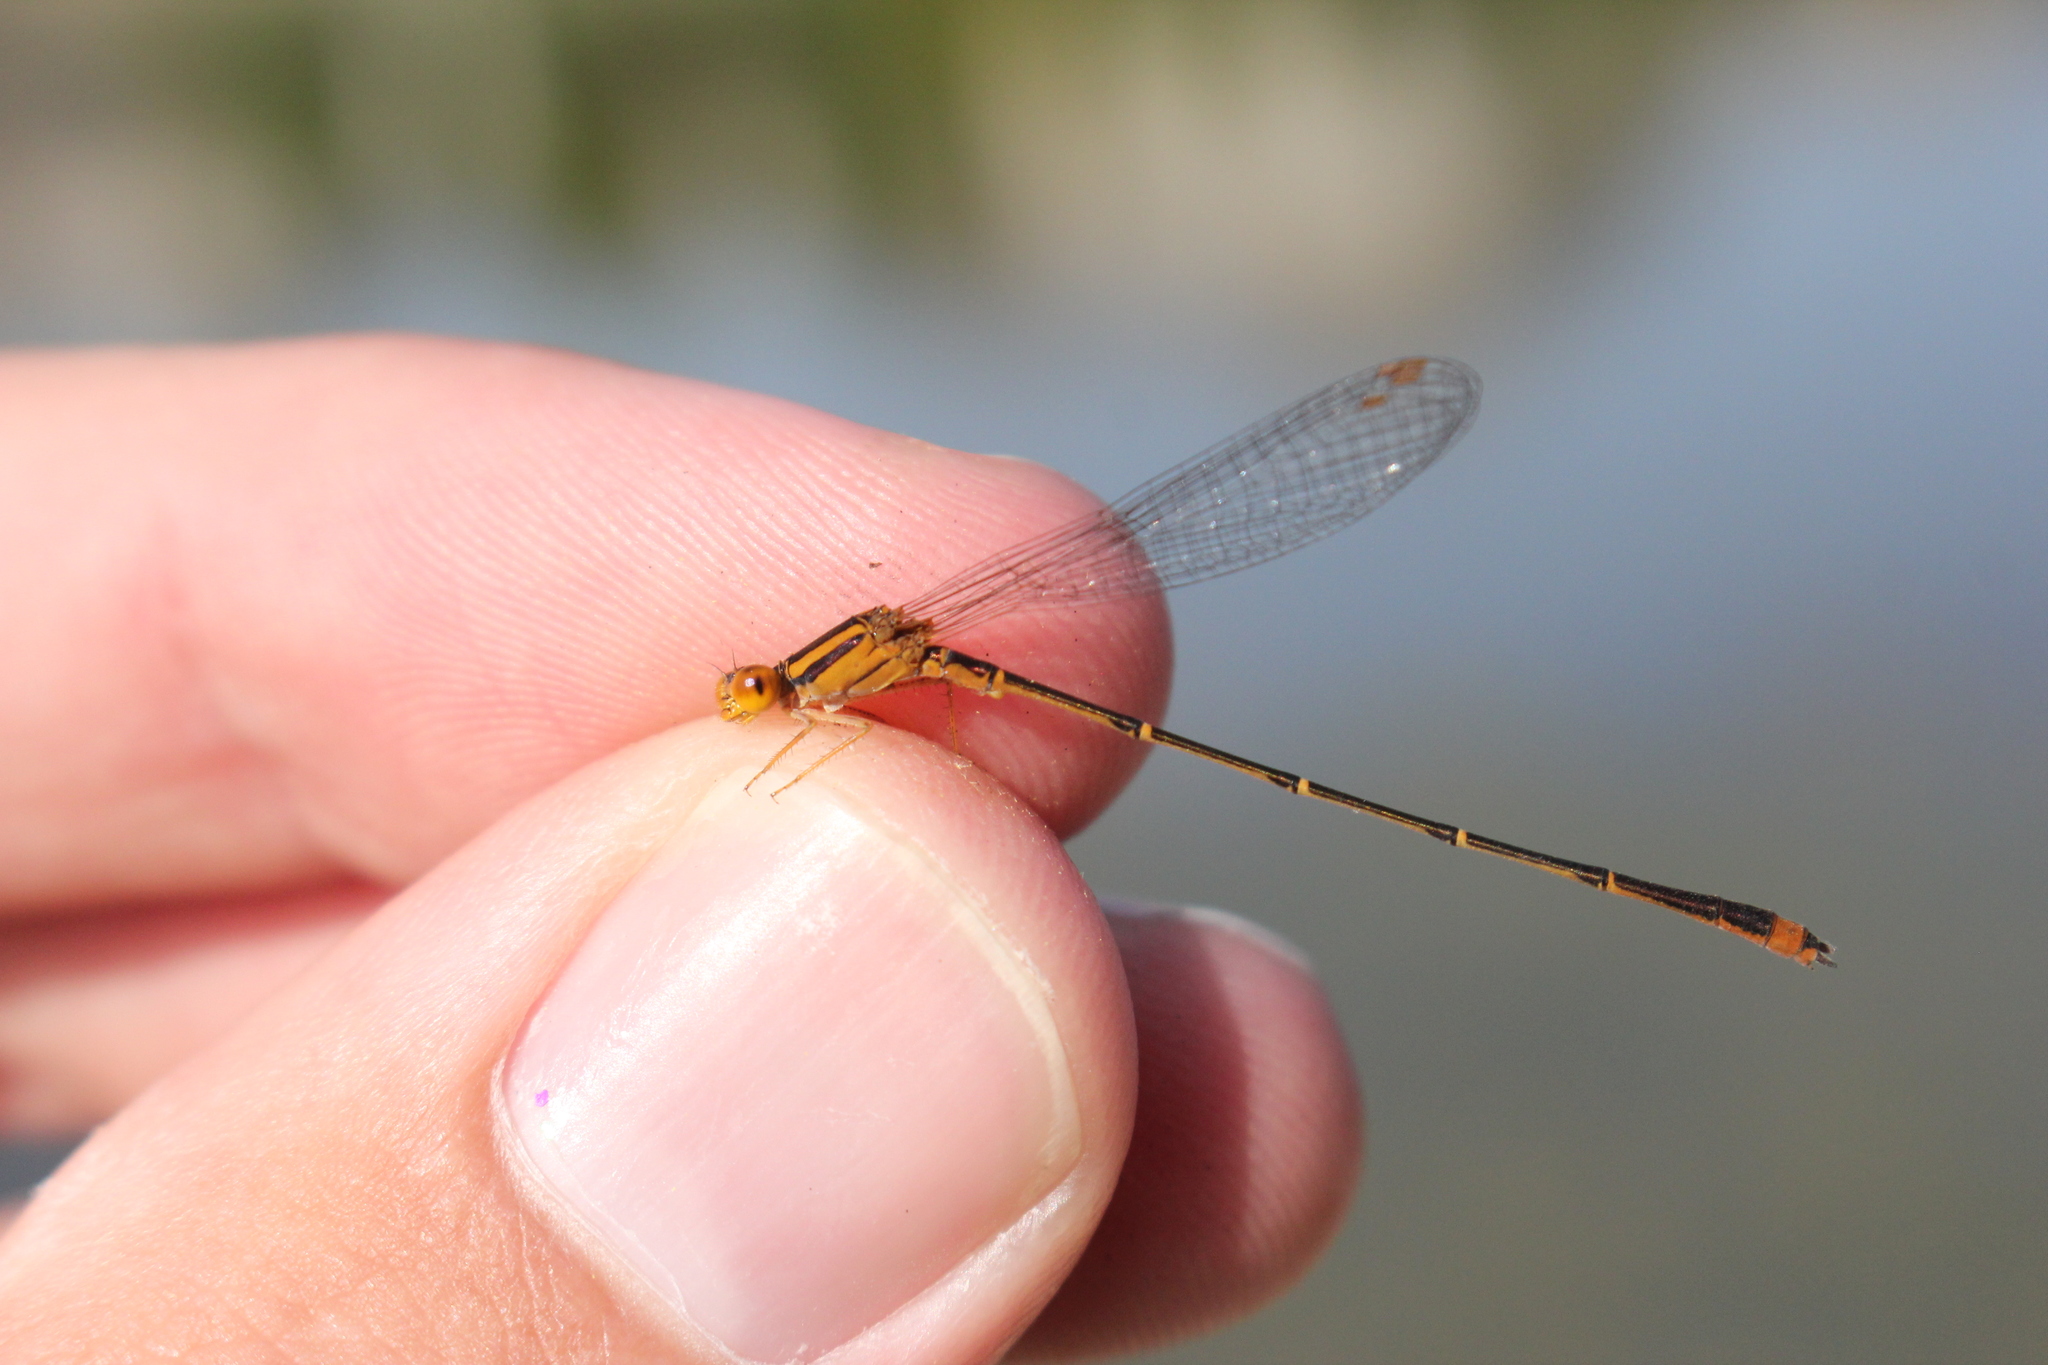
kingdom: Animalia
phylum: Arthropoda
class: Insecta
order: Odonata
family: Coenagrionidae
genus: Enallagma
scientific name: Enallagma signatum
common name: Orange bluet
